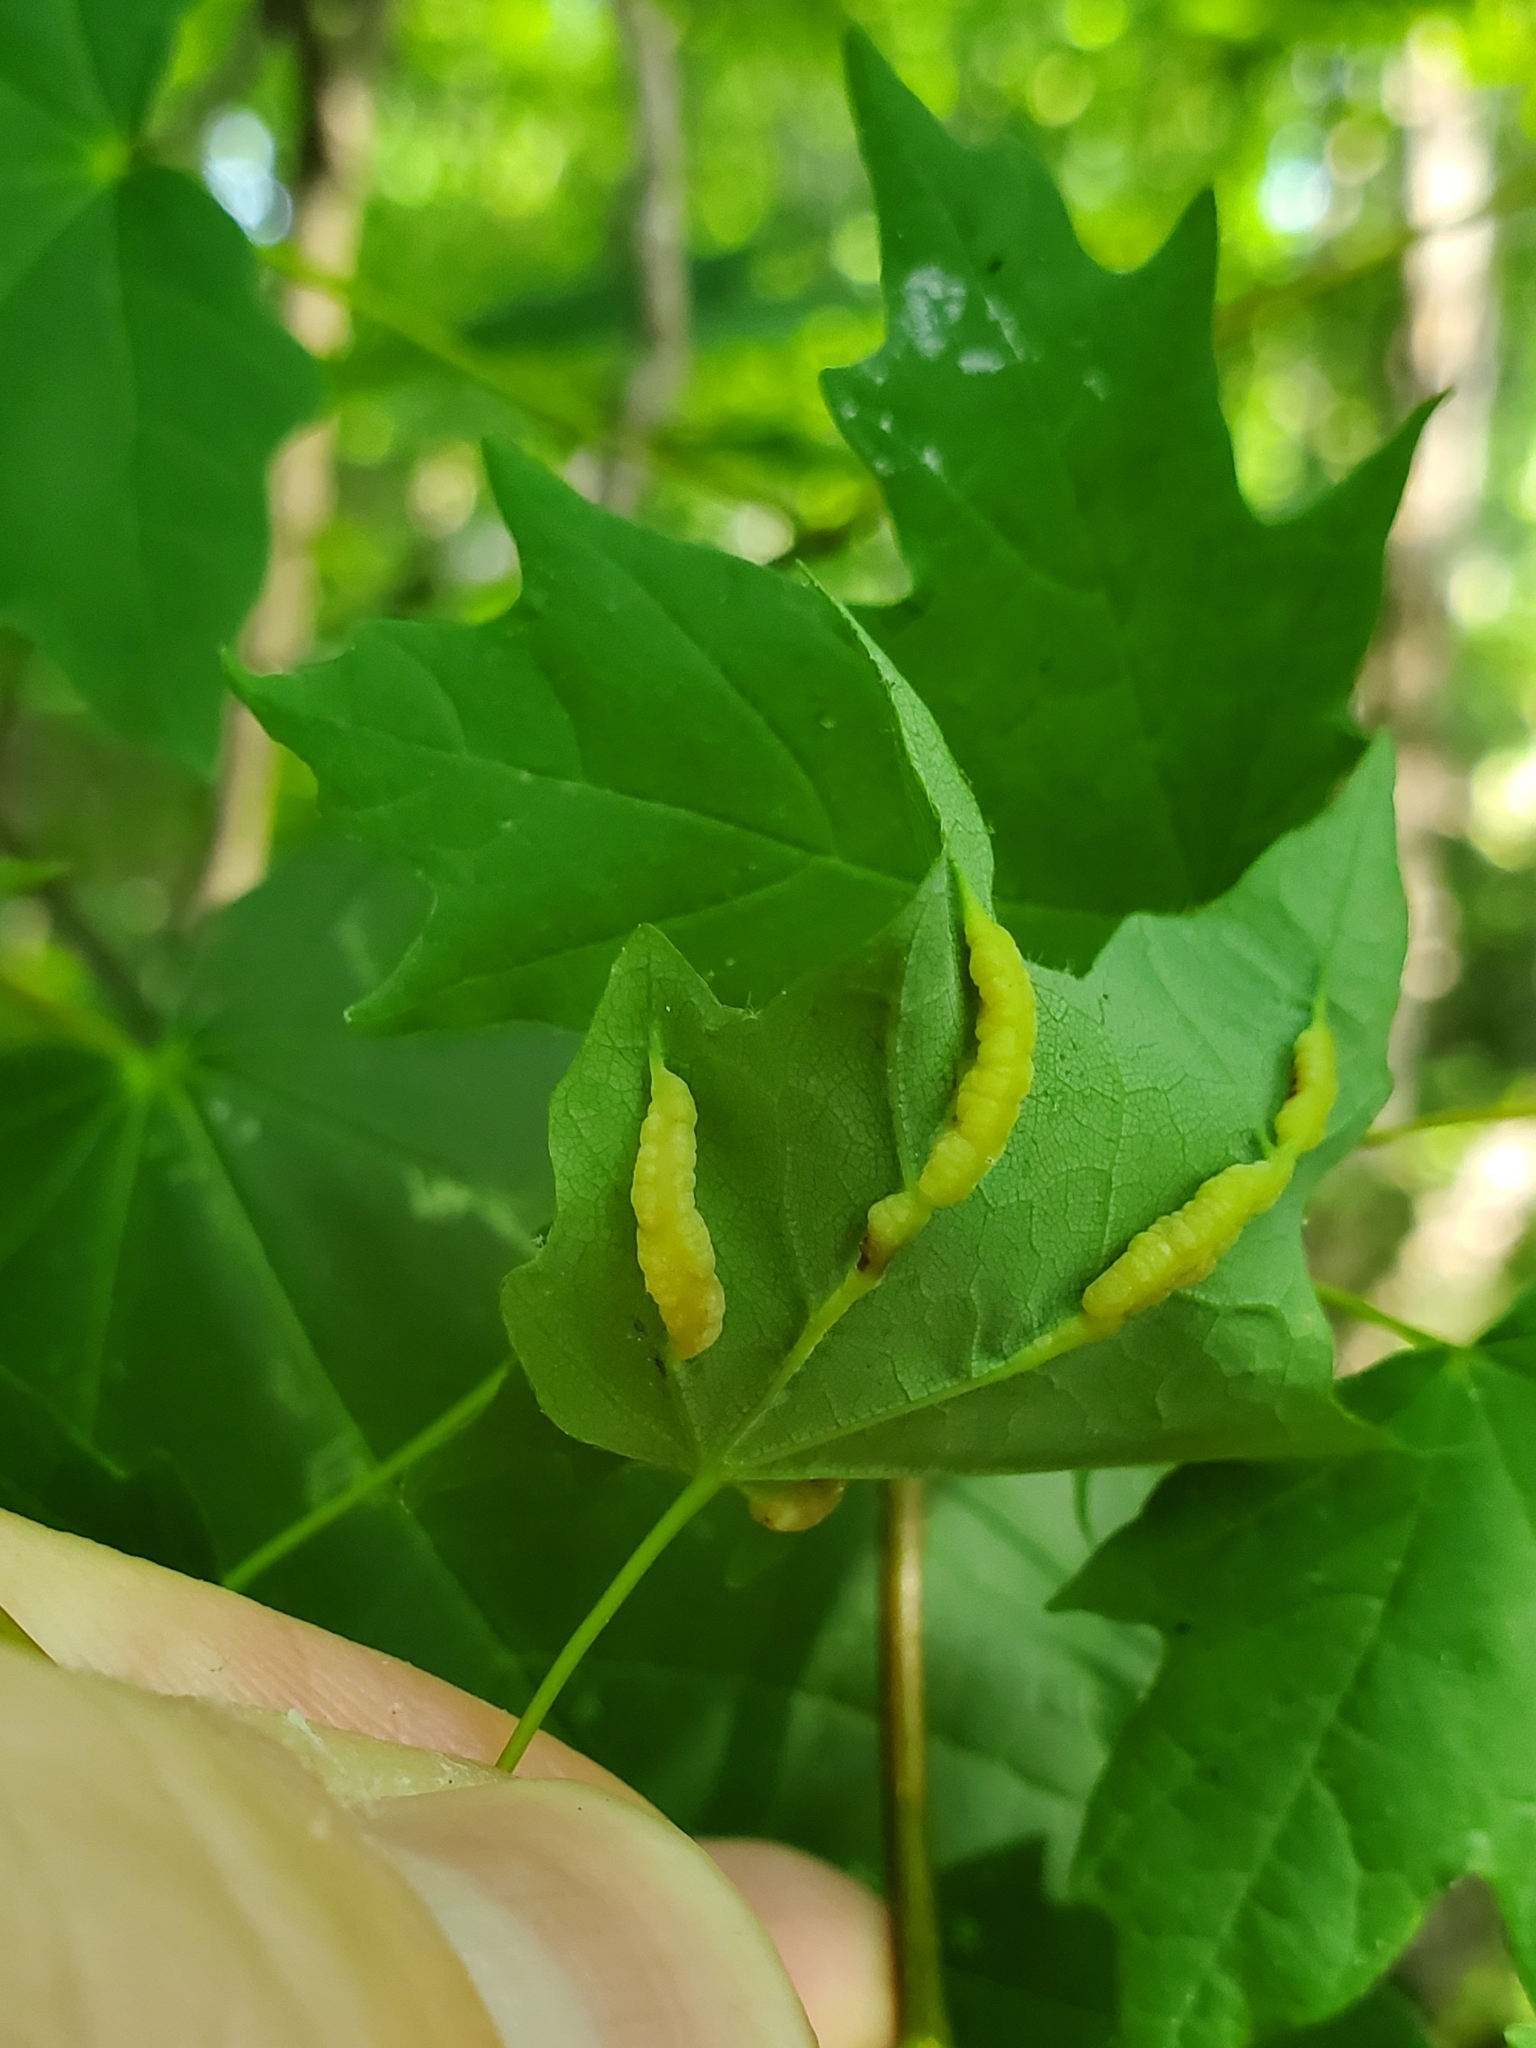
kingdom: Animalia
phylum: Arthropoda
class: Insecta
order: Diptera
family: Cecidomyiidae
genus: Dasineura
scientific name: Dasineura communis
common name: Gouty vein midge
